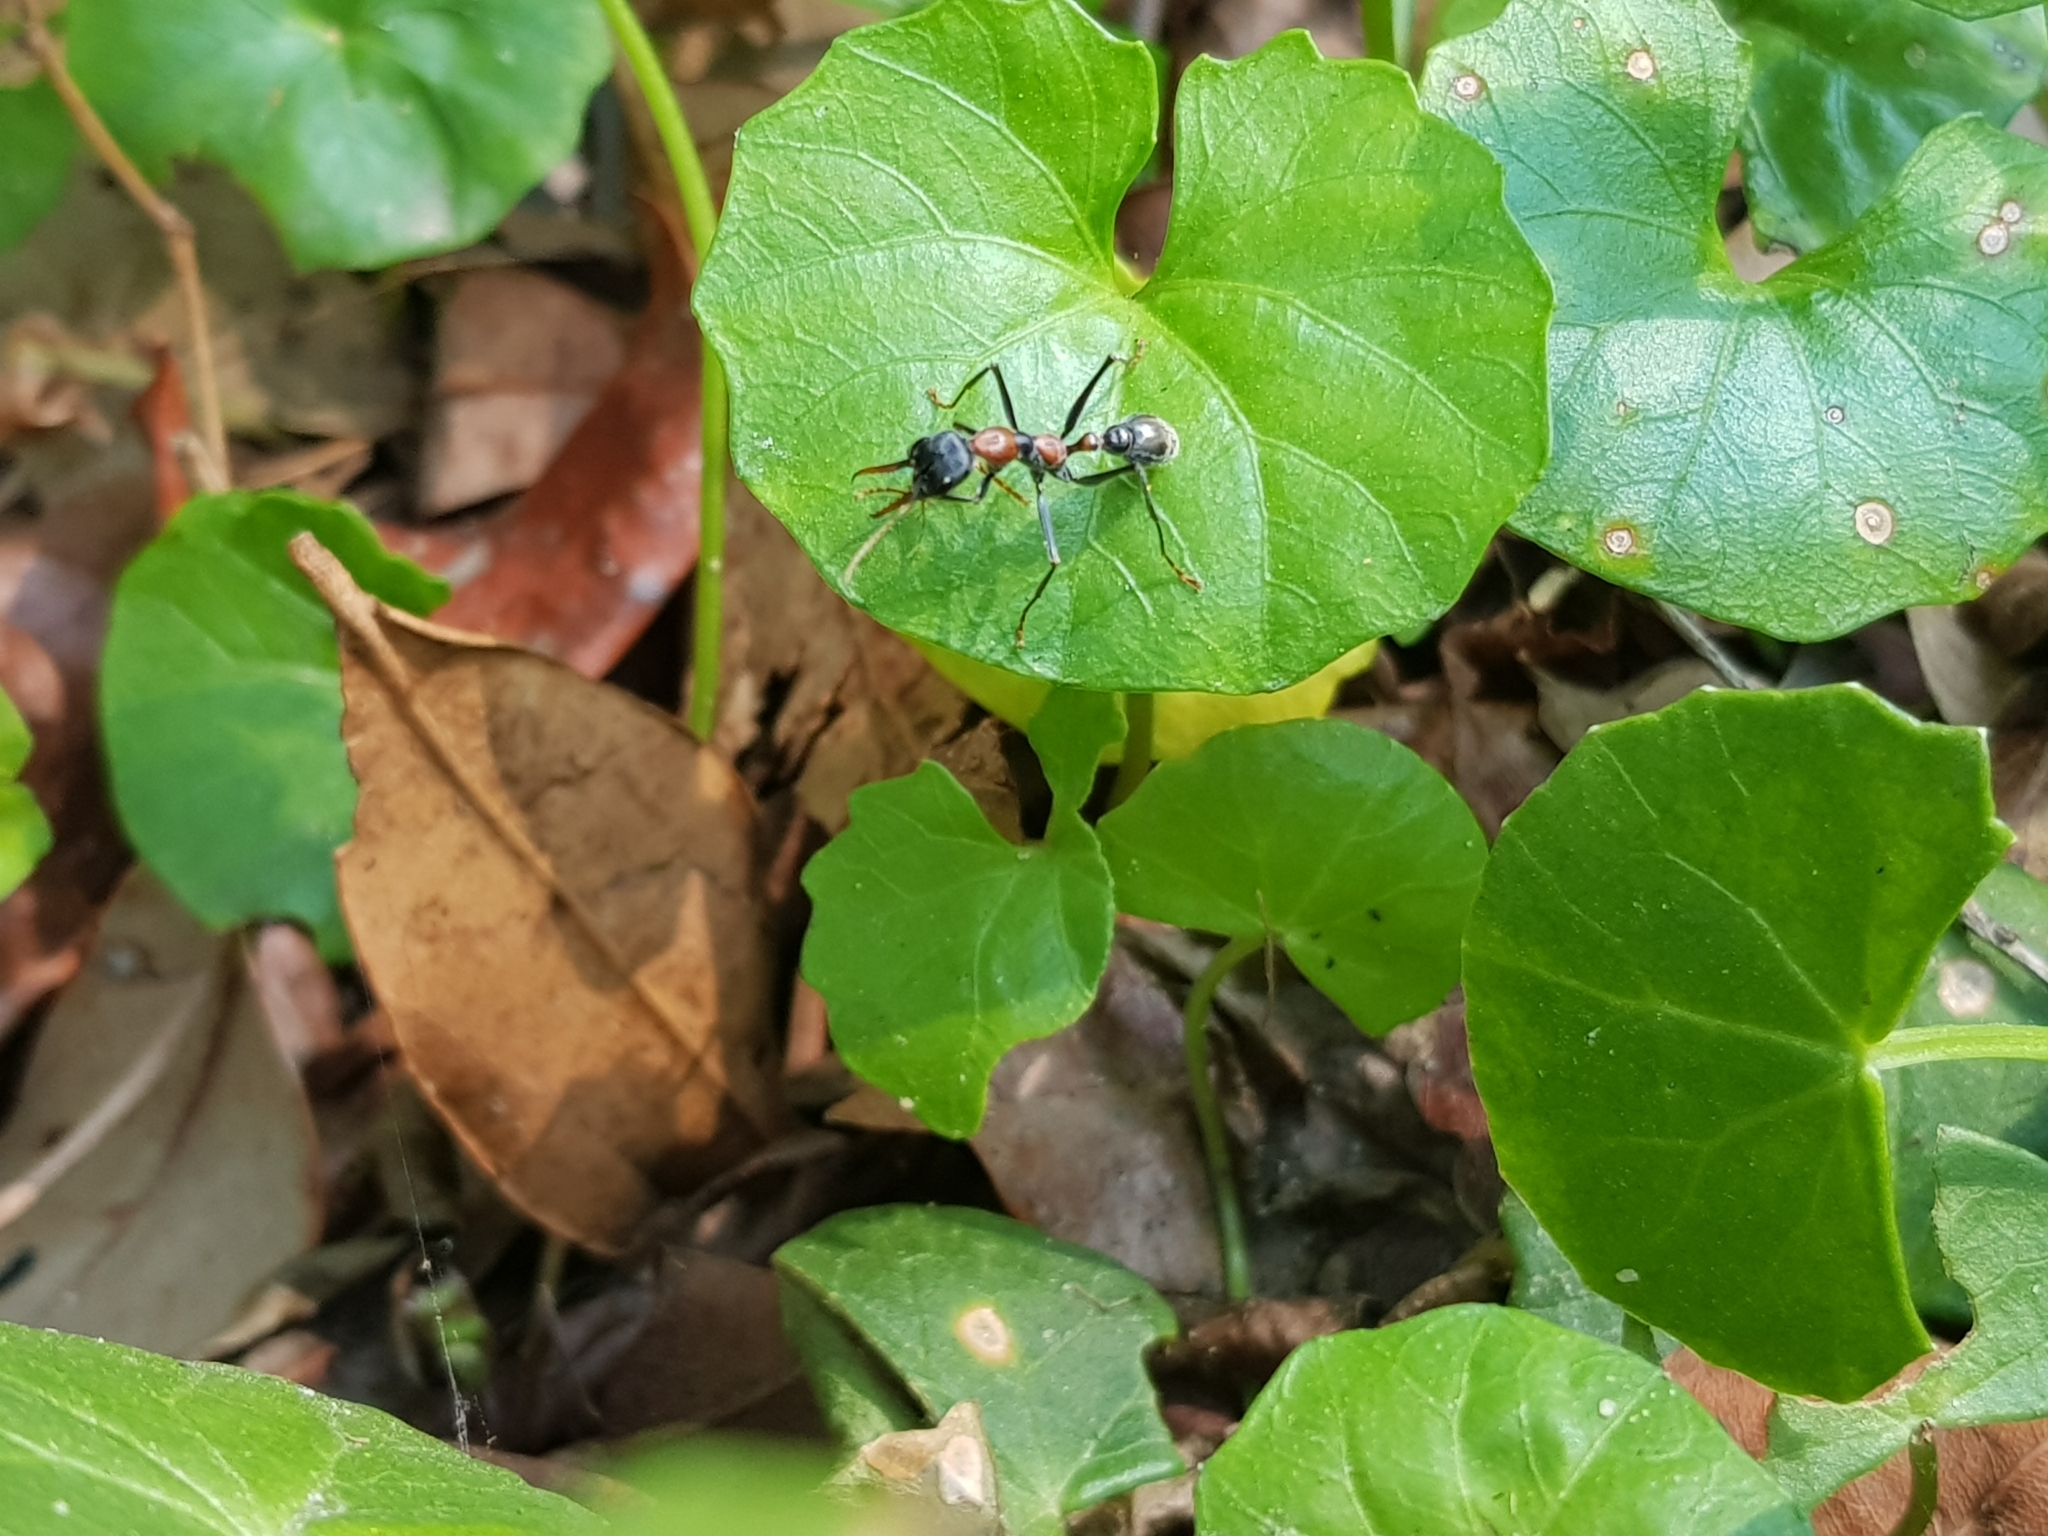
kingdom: Animalia
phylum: Arthropoda
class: Insecta
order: Hymenoptera
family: Formicidae
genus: Myrmecia
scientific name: Myrmecia nigrocincta
